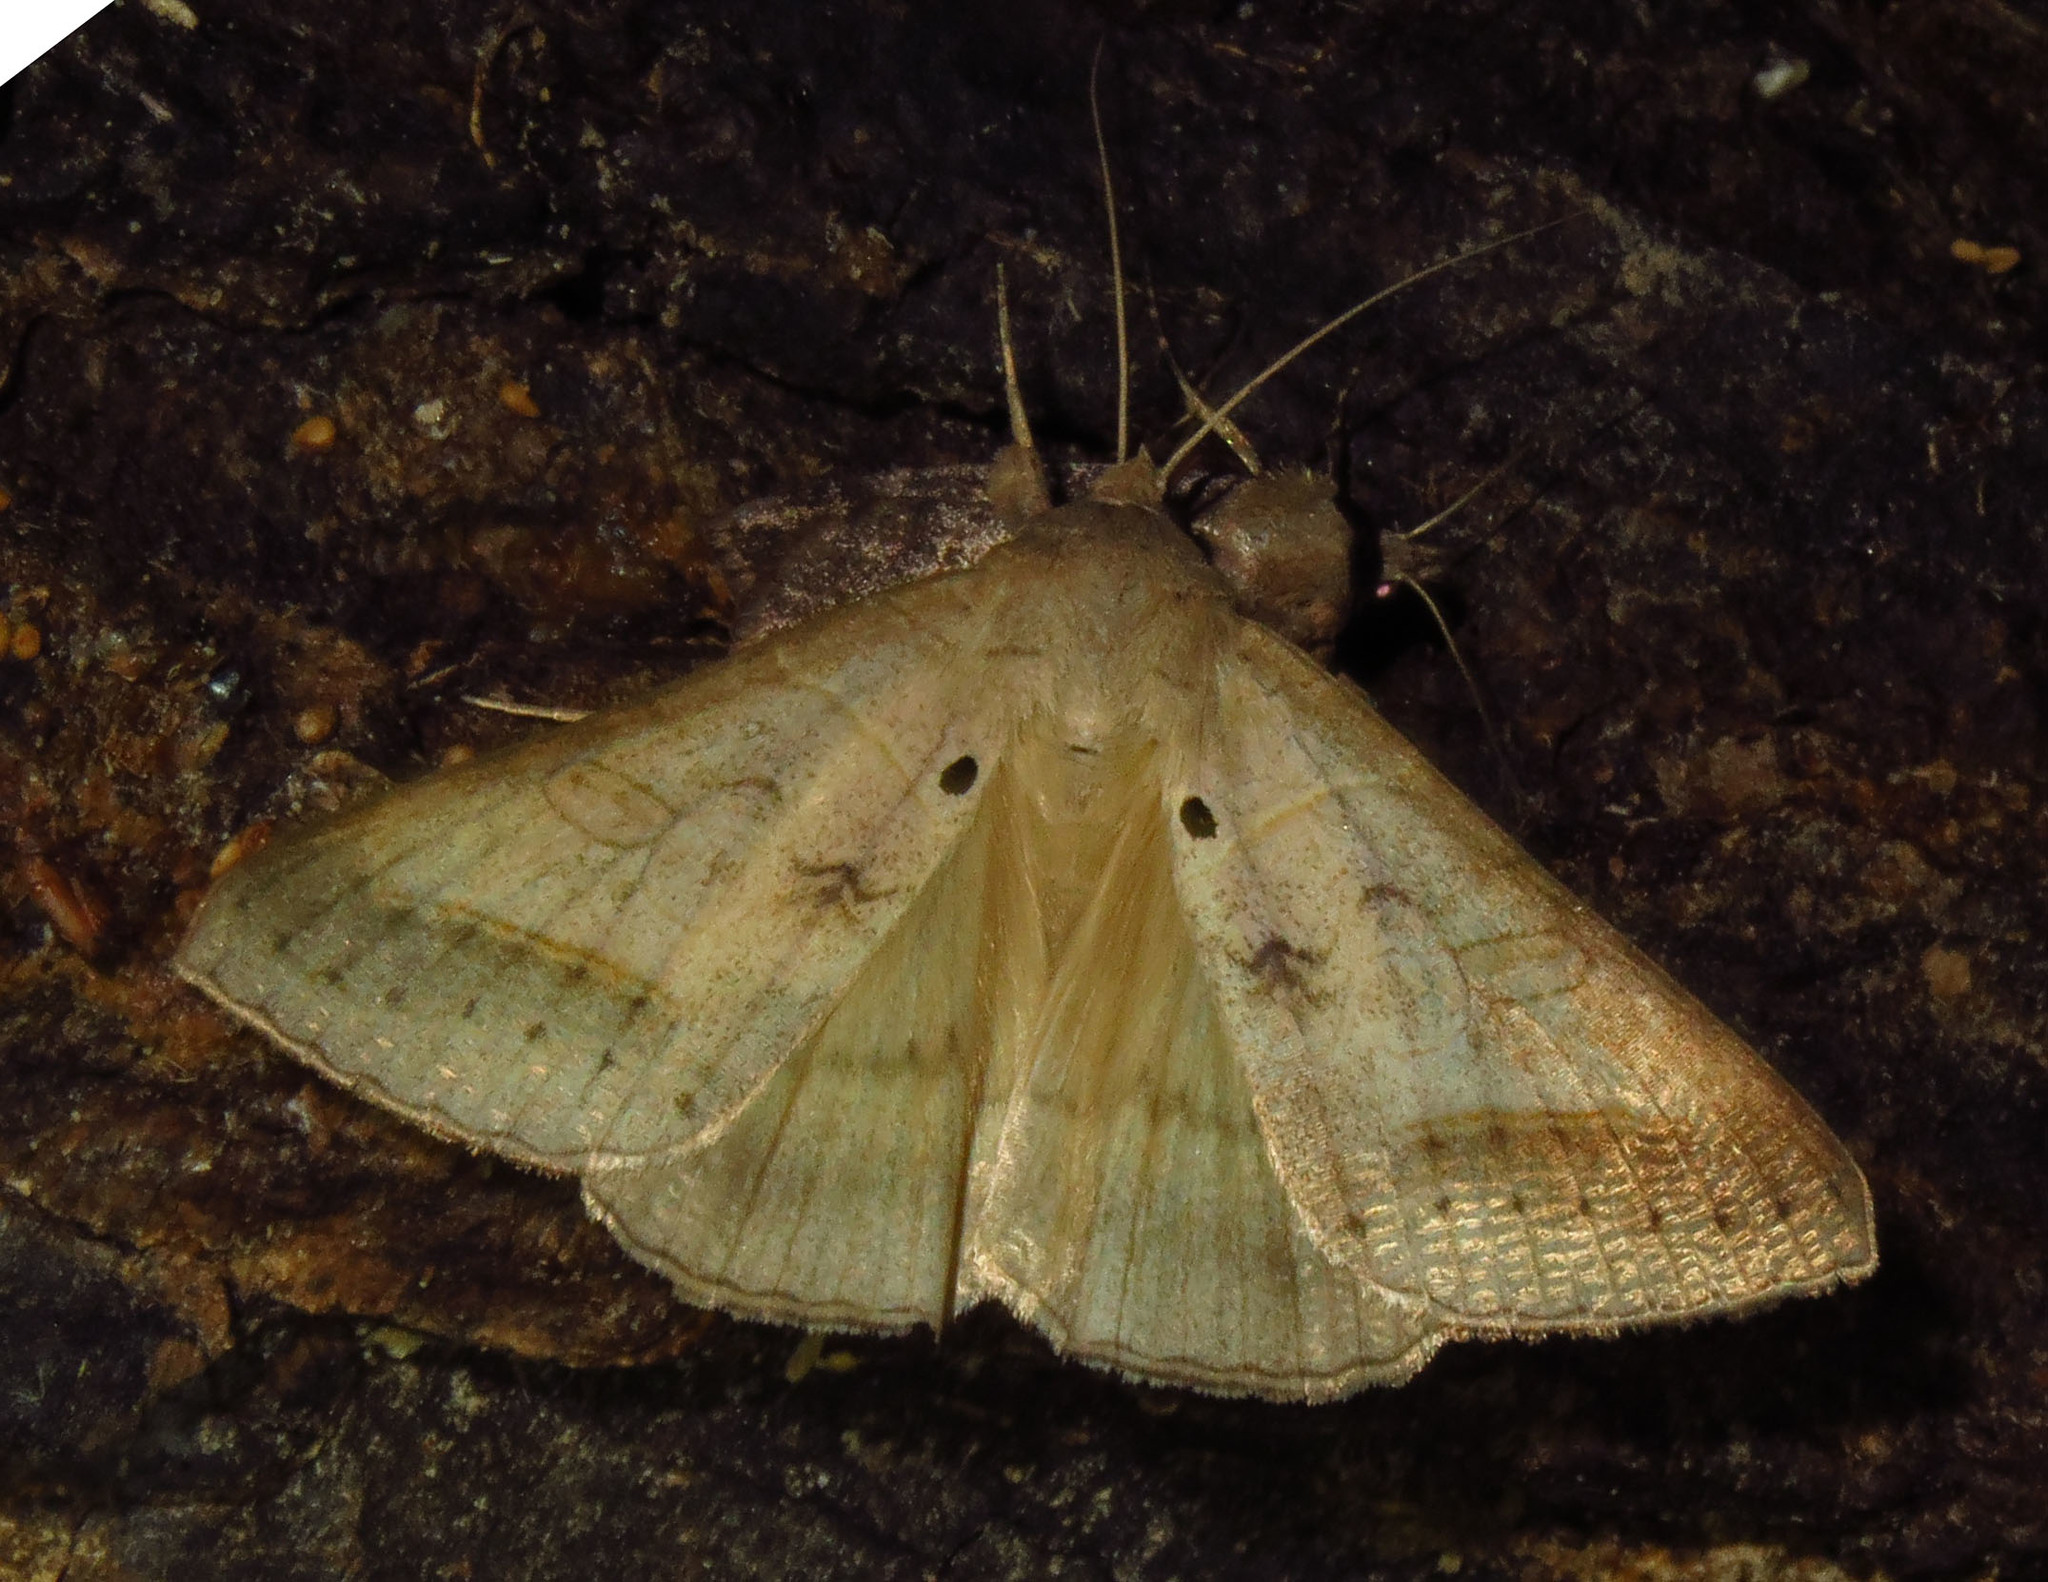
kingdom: Animalia
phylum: Arthropoda
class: Insecta
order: Lepidoptera
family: Erebidae
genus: Mocis
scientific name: Mocis marcida
